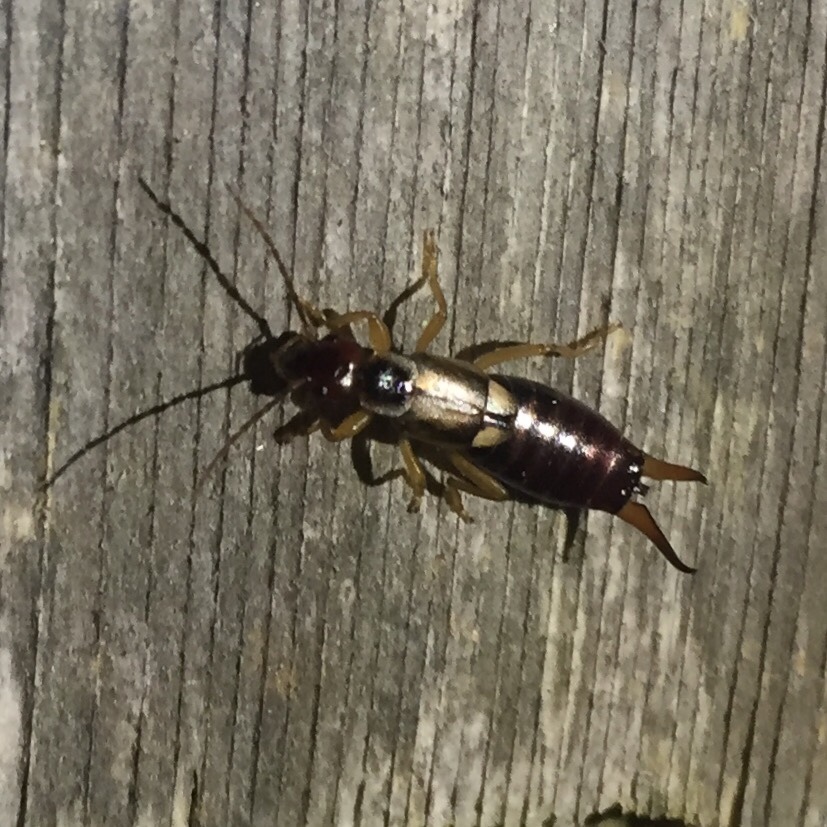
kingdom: Animalia
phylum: Arthropoda
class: Insecta
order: Dermaptera
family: Forficulidae
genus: Forficula
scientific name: Forficula
